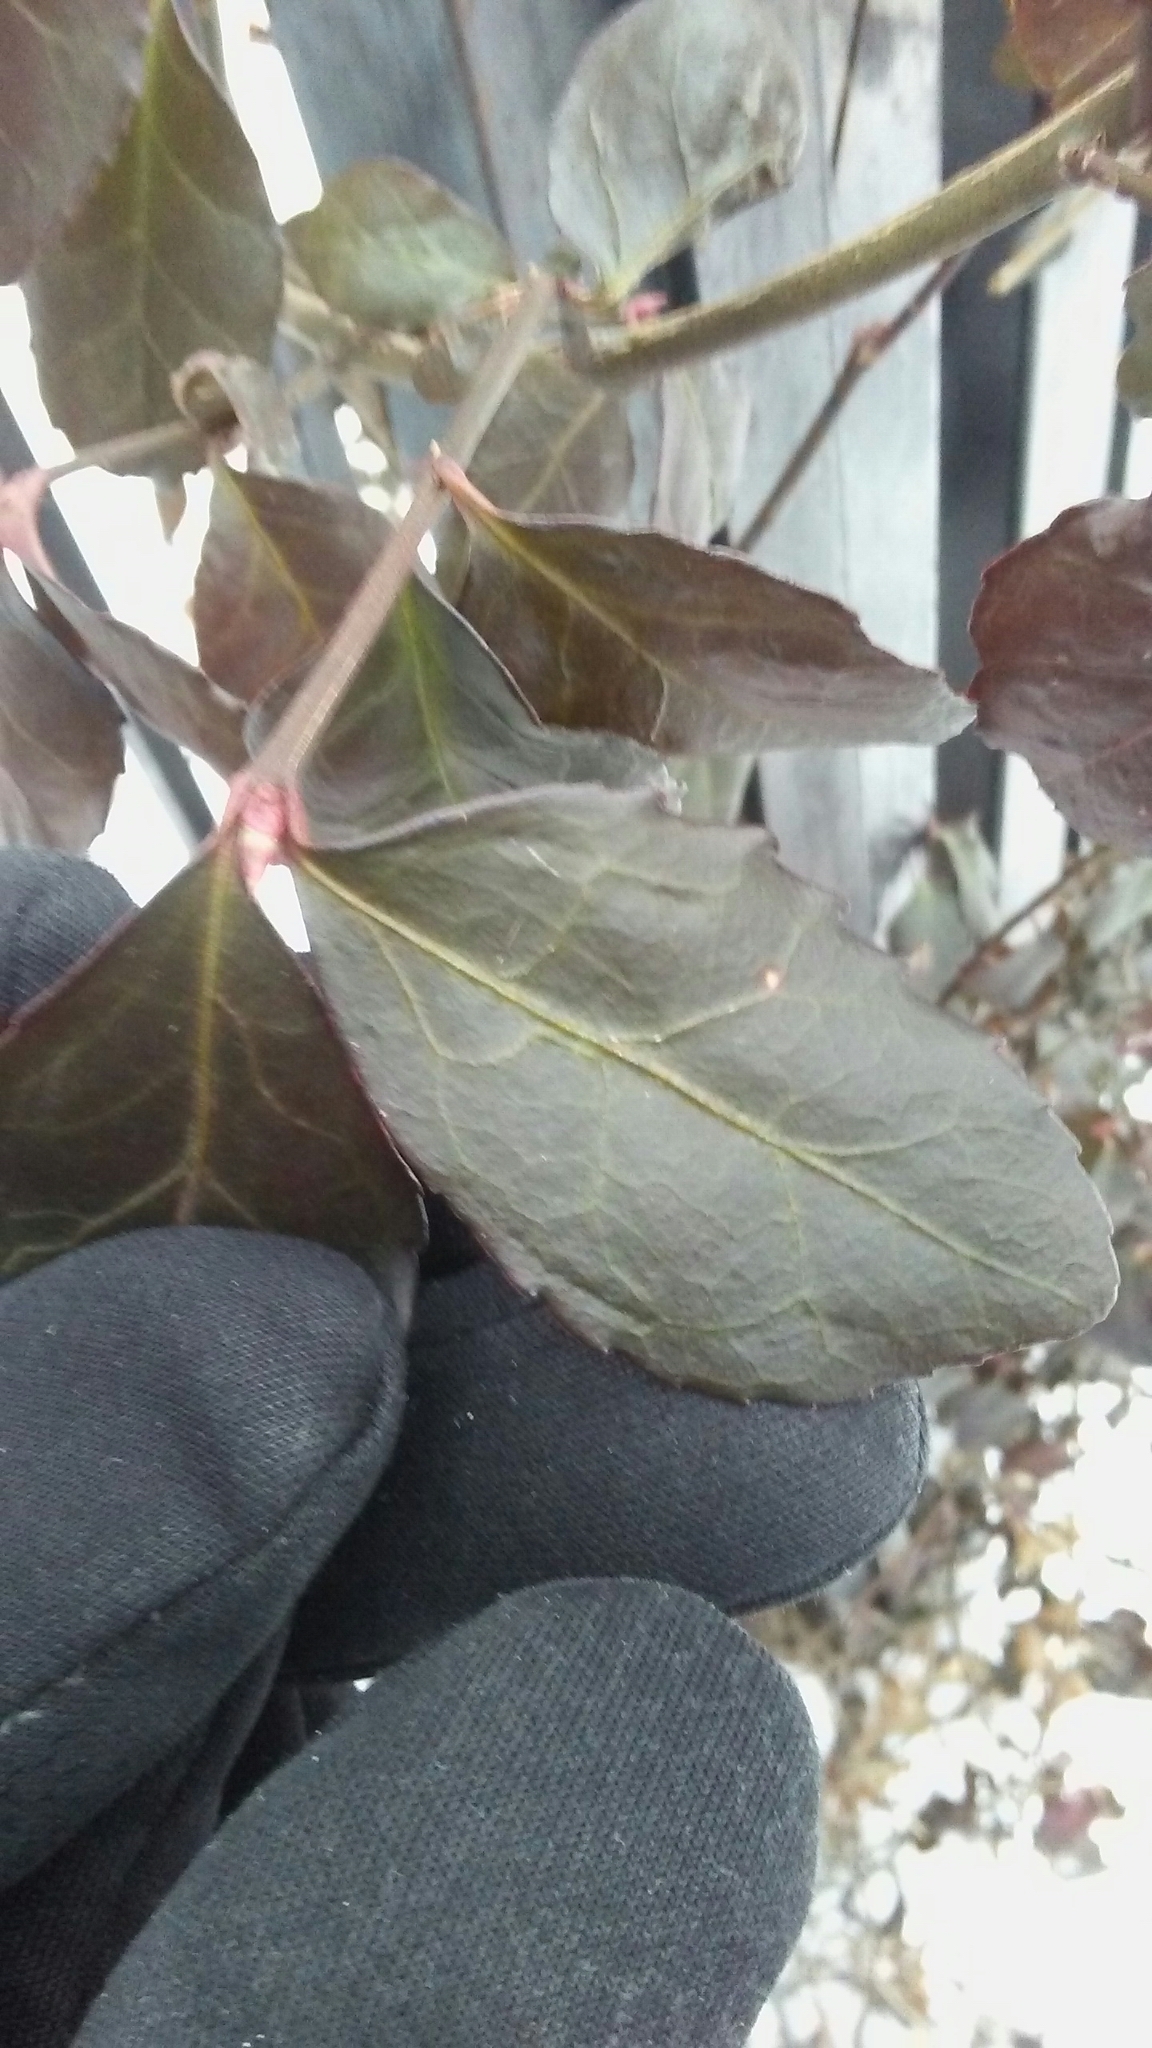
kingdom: Plantae
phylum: Tracheophyta
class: Magnoliopsida
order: Celastrales
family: Celastraceae
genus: Euonymus
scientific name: Euonymus fortunei
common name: Climbing euonymus
